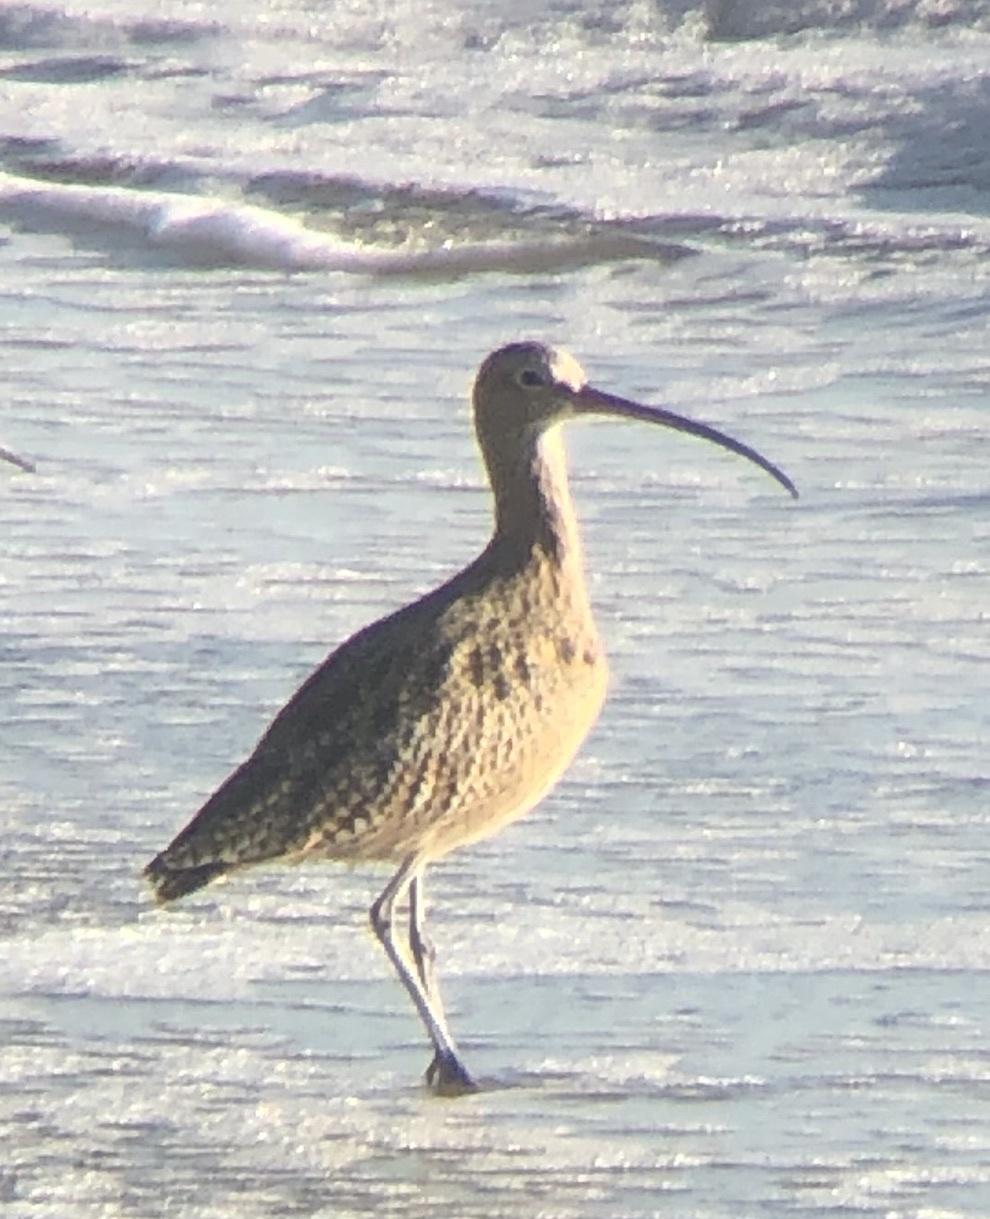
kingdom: Animalia
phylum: Chordata
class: Aves
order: Charadriiformes
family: Scolopacidae
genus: Numenius
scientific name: Numenius americanus
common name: Long-billed curlew
